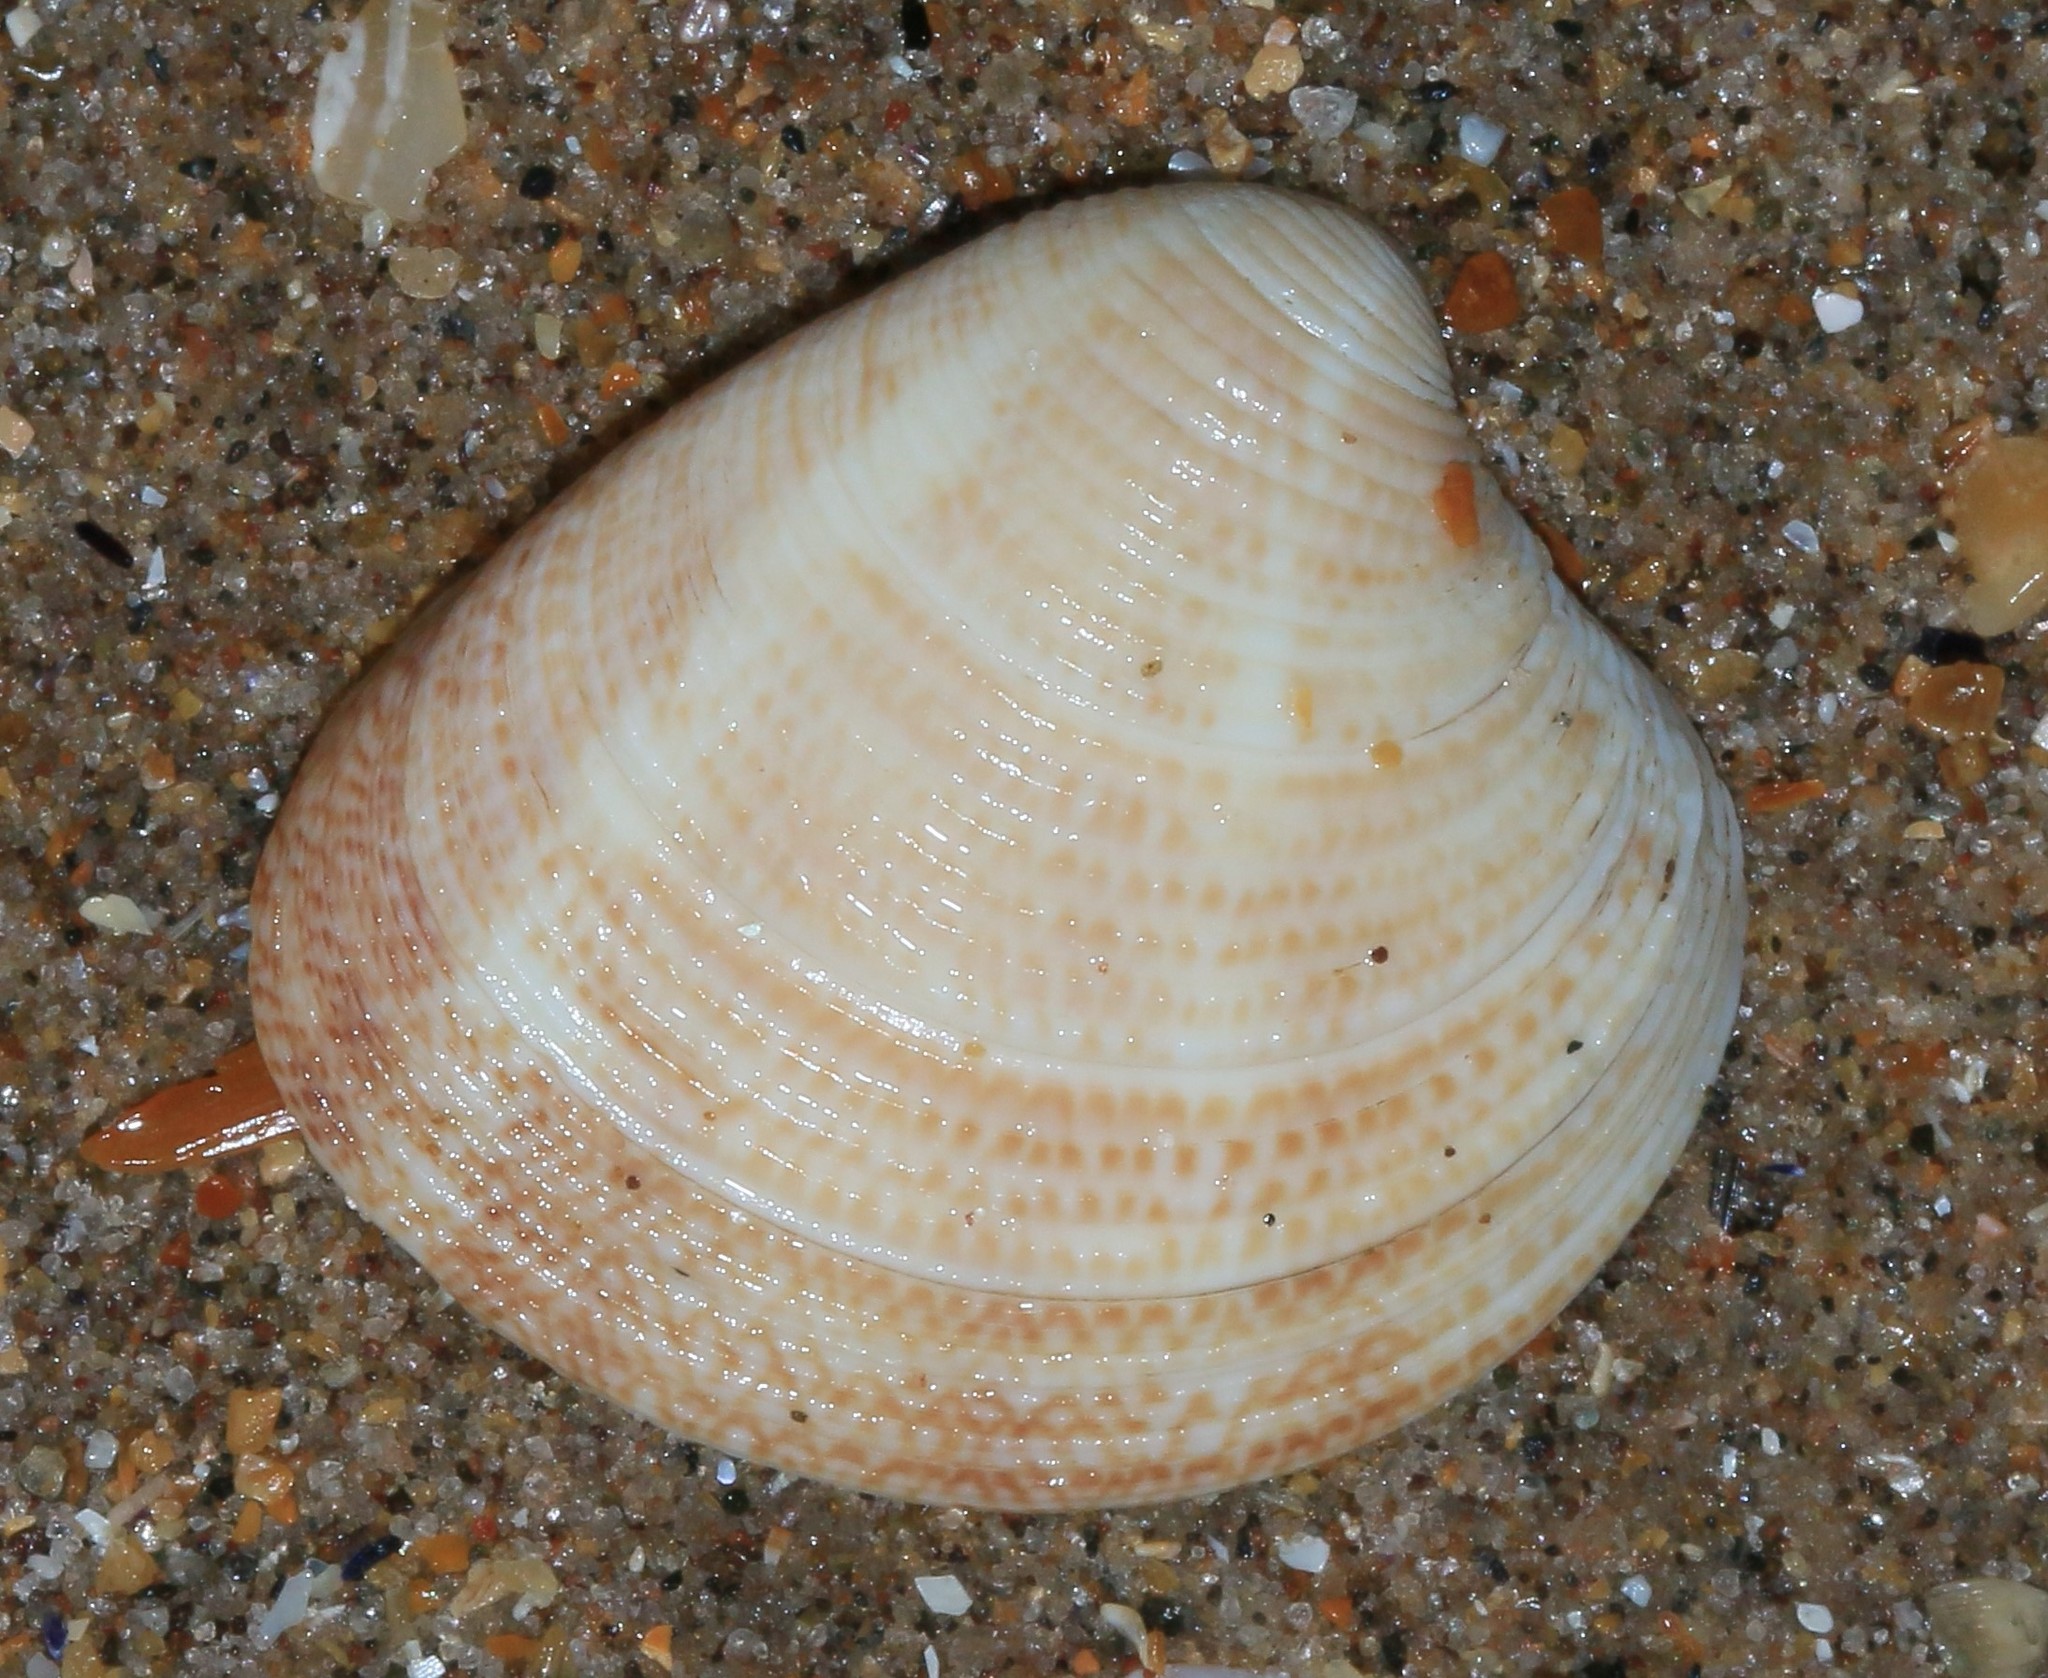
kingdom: Animalia
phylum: Mollusca
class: Bivalvia
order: Venerida
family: Veneridae
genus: Chamelea
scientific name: Chamelea striatula
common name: Striped venus
